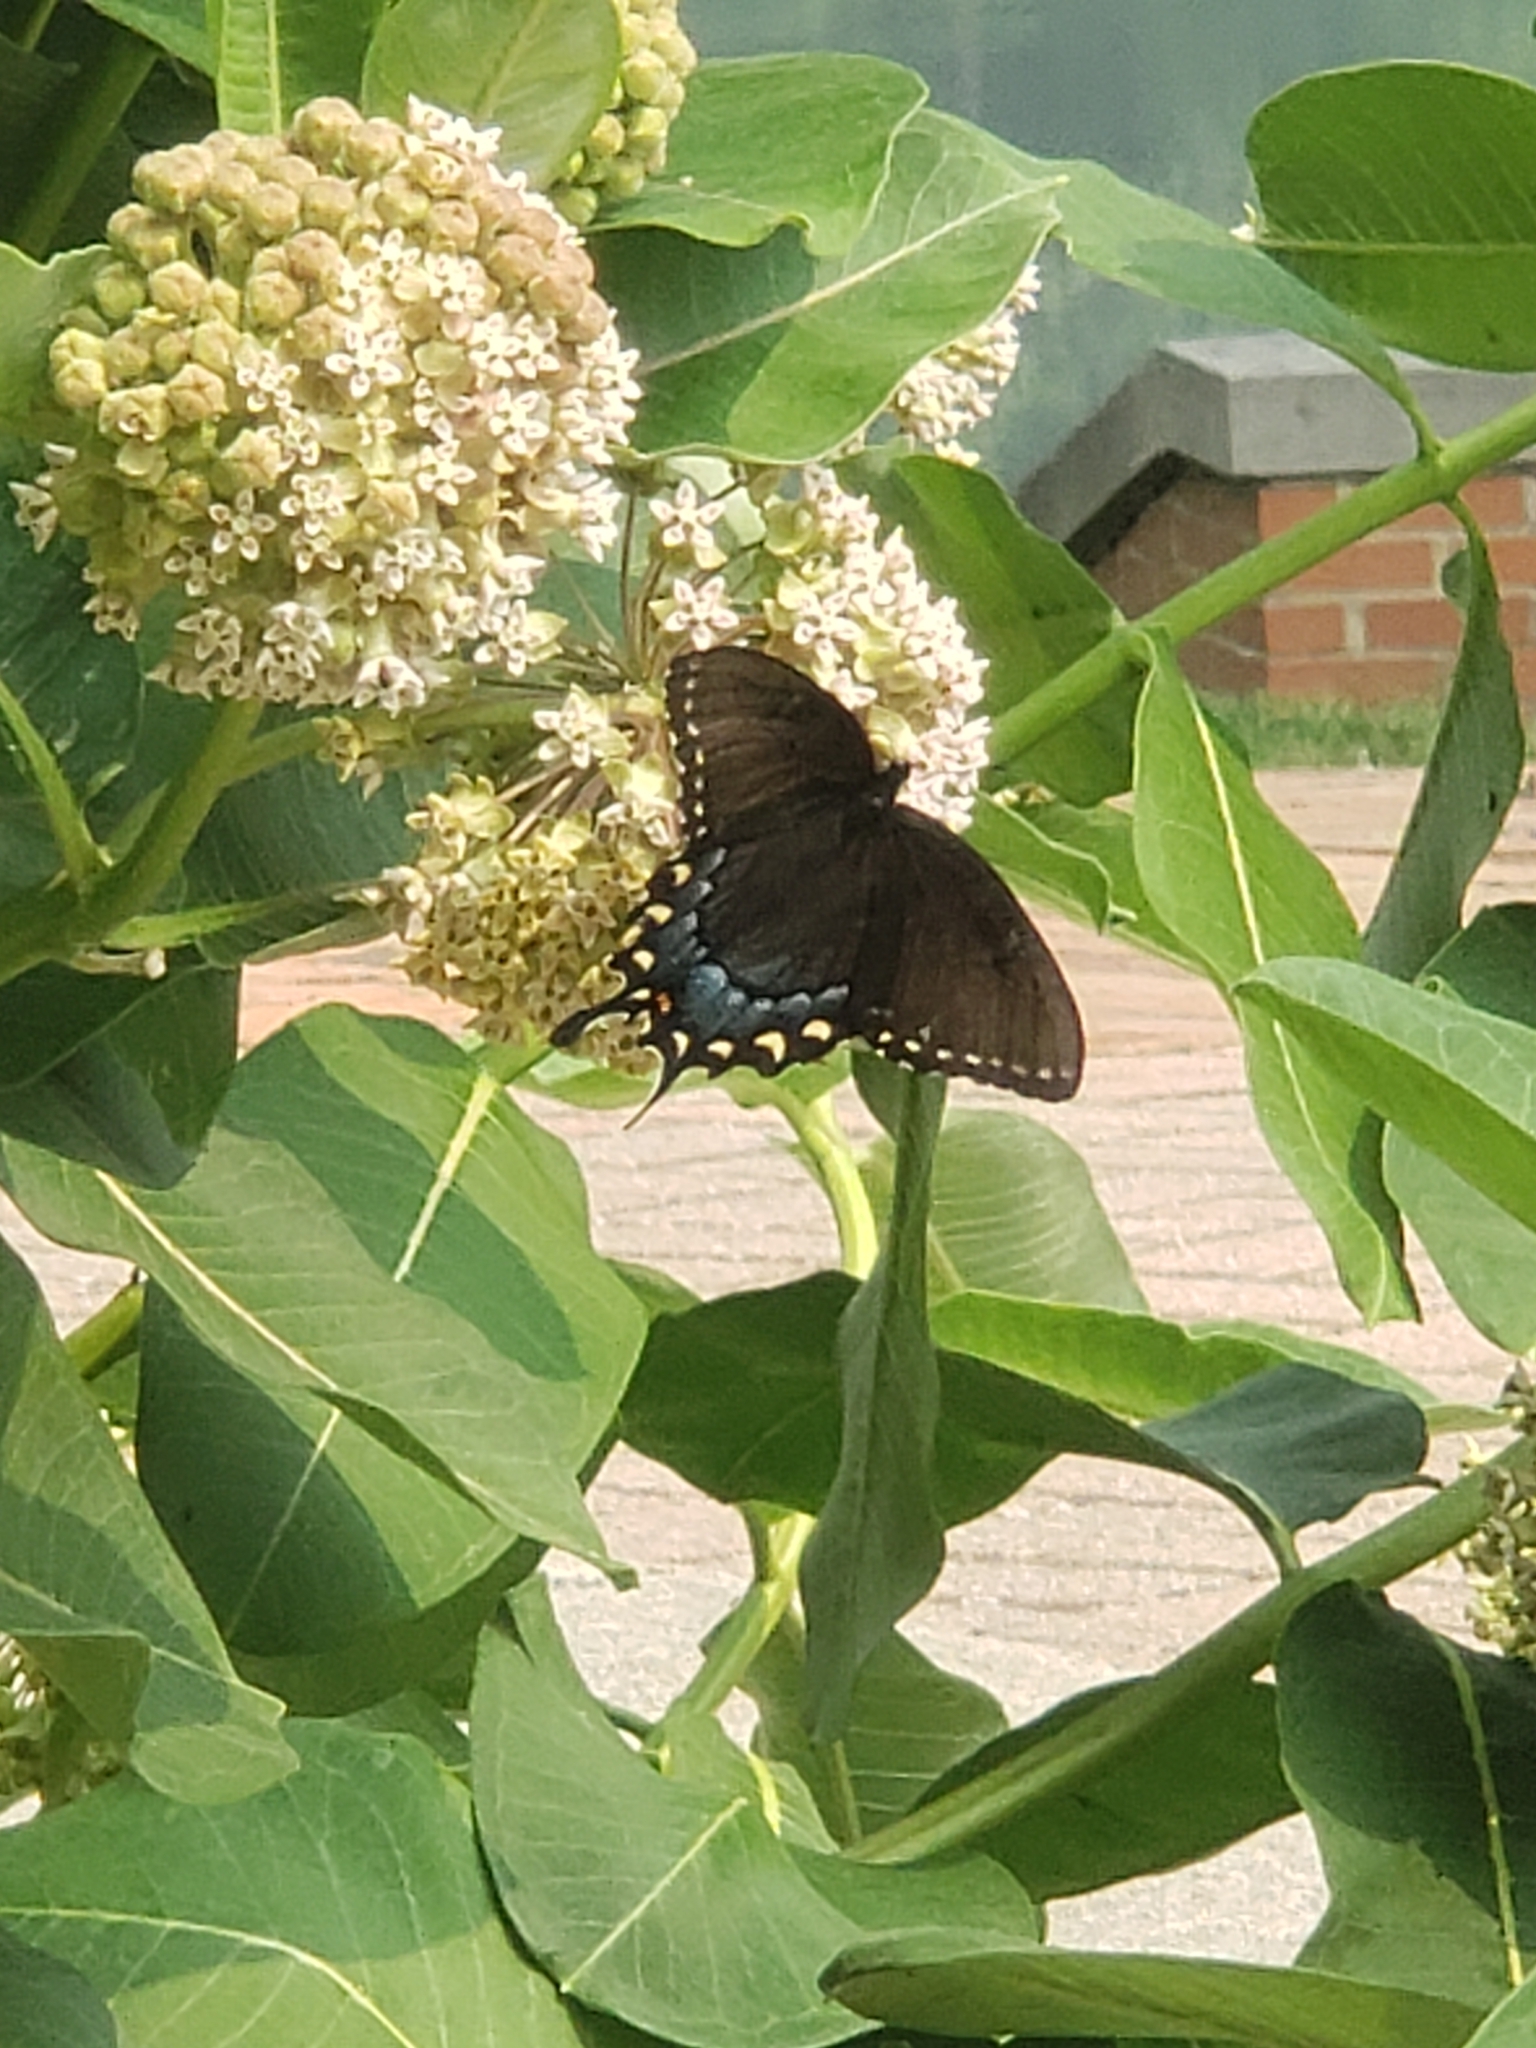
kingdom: Animalia
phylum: Arthropoda
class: Insecta
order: Lepidoptera
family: Papilionidae
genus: Papilio
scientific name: Papilio glaucus
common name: Tiger swallowtail
